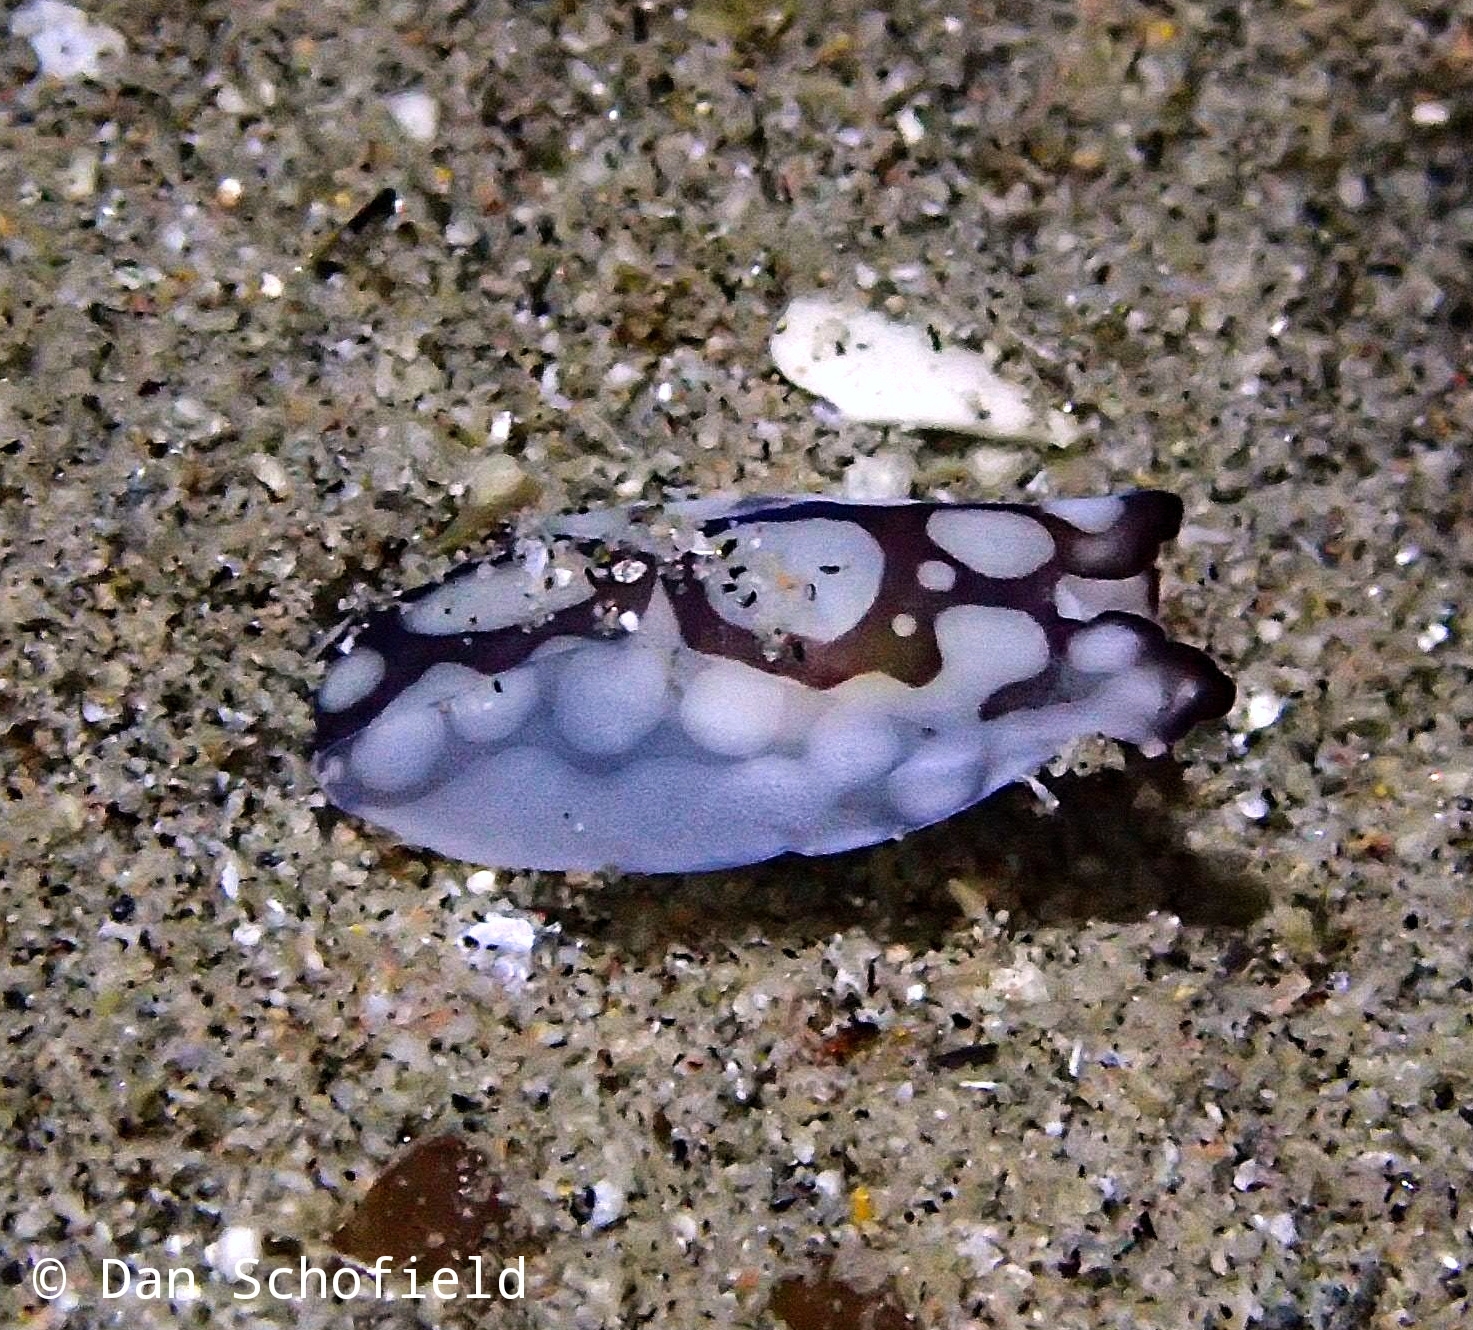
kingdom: Animalia
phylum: Mollusca
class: Gastropoda
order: Cephalaspidea
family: Aglajidae
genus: Tubulophilinopsis
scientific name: Tubulophilinopsis pilsbryi
